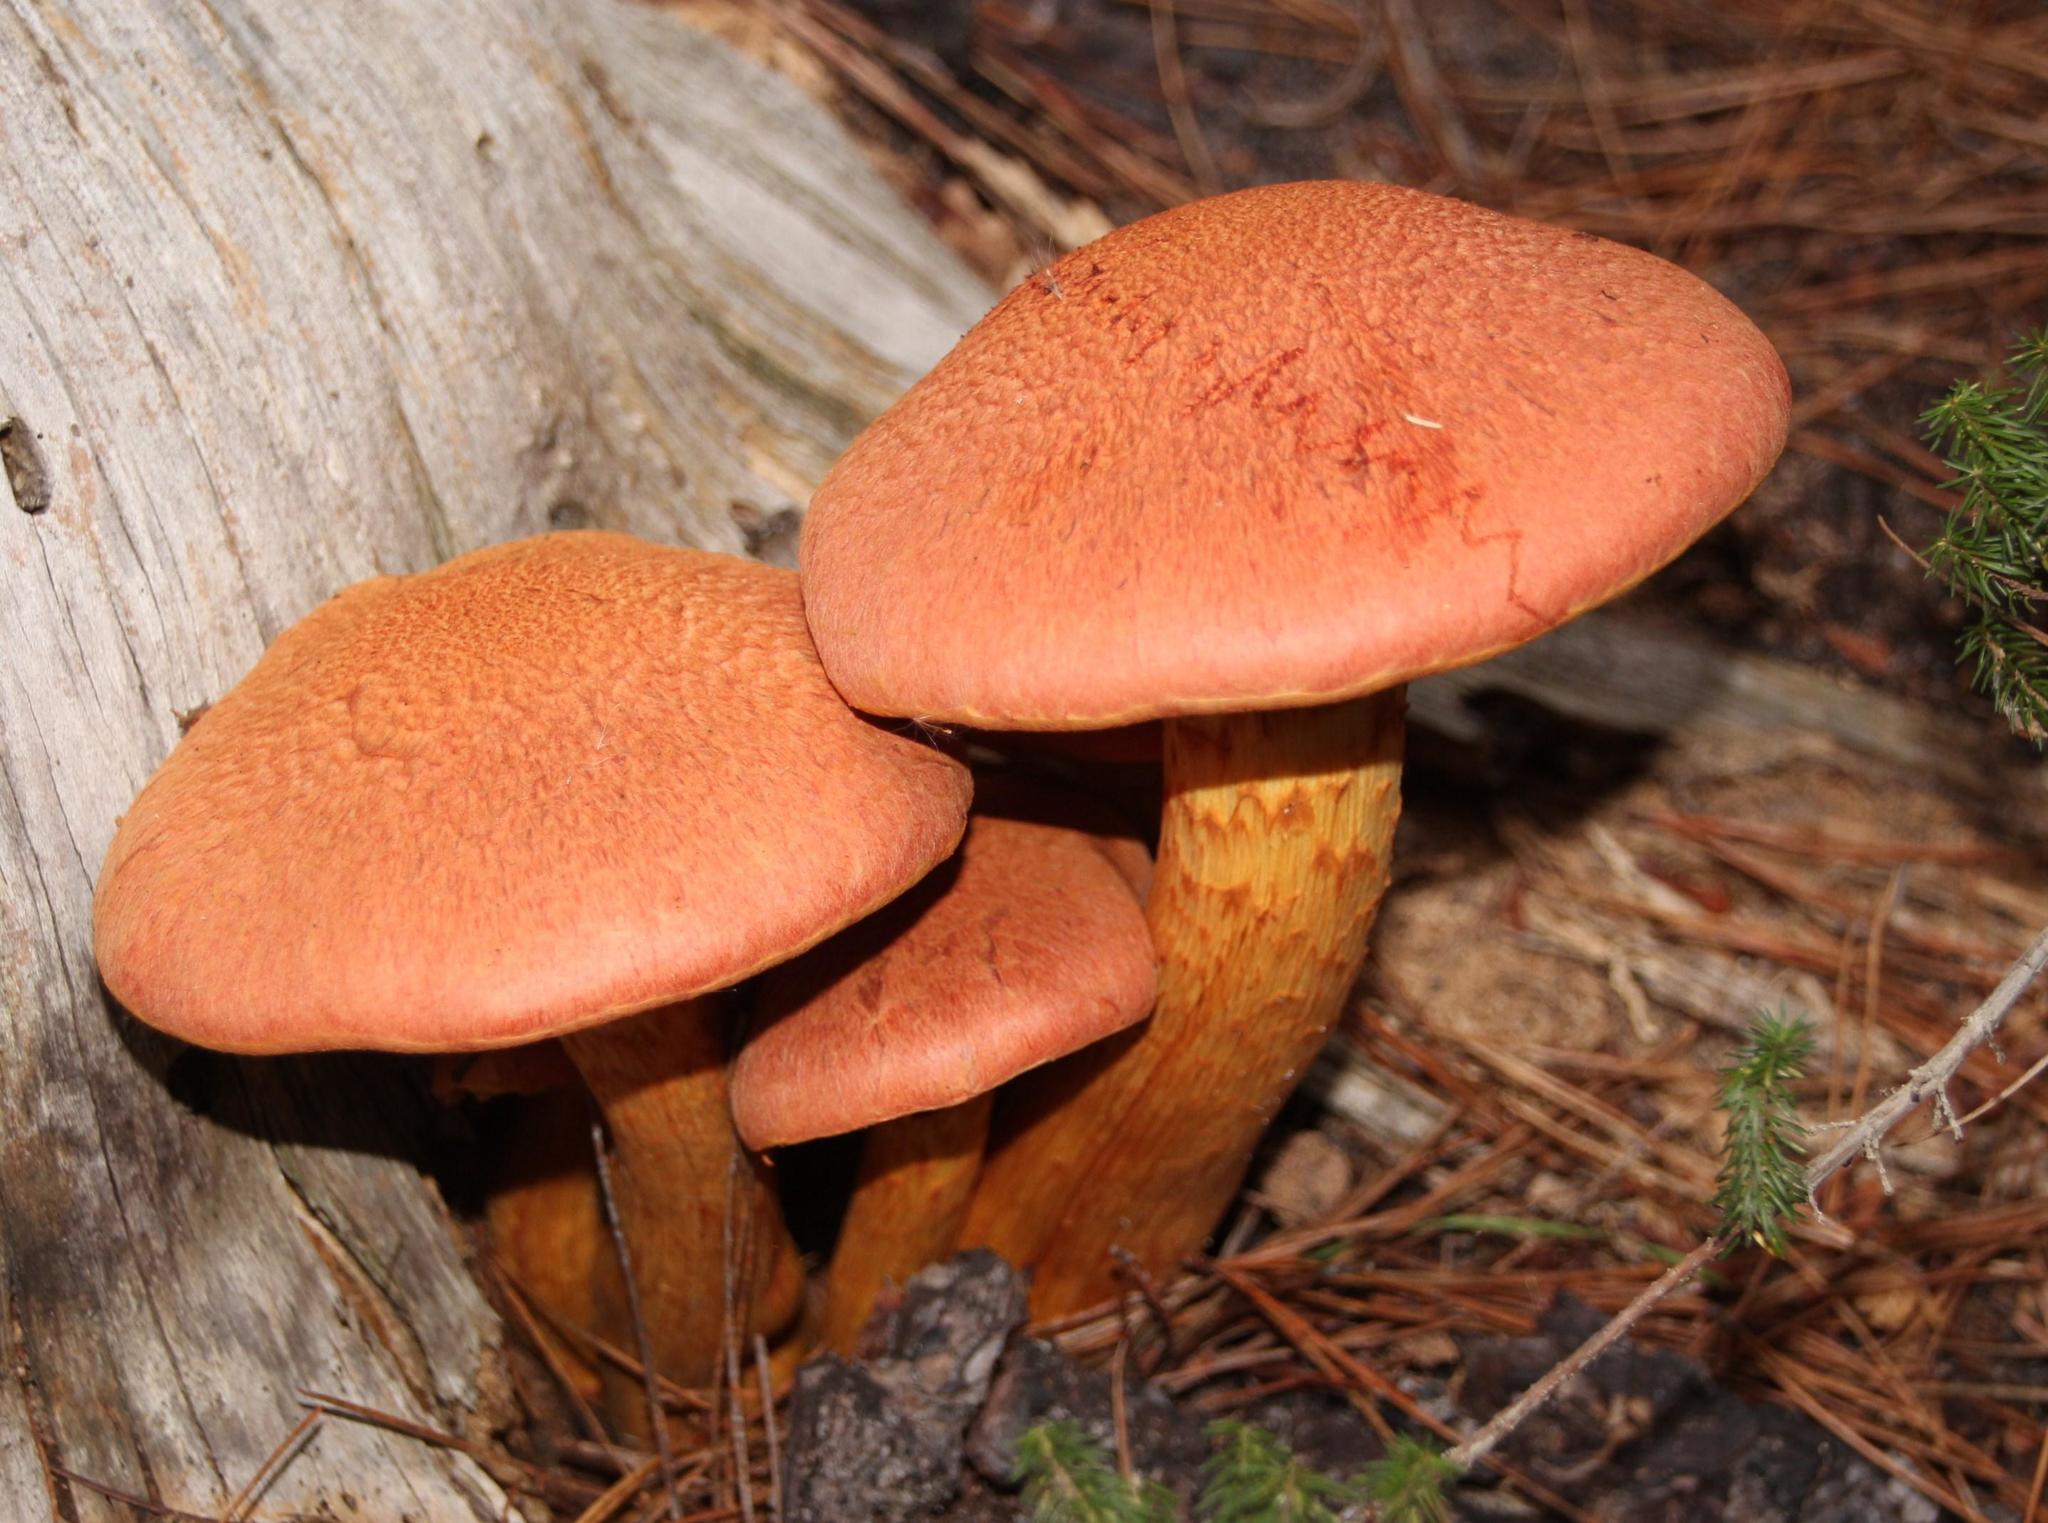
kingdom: Fungi
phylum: Basidiomycota
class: Agaricomycetes
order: Agaricales
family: Hymenogastraceae
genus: Gymnopilus
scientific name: Gymnopilus junonius
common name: Spectacular rustgill
